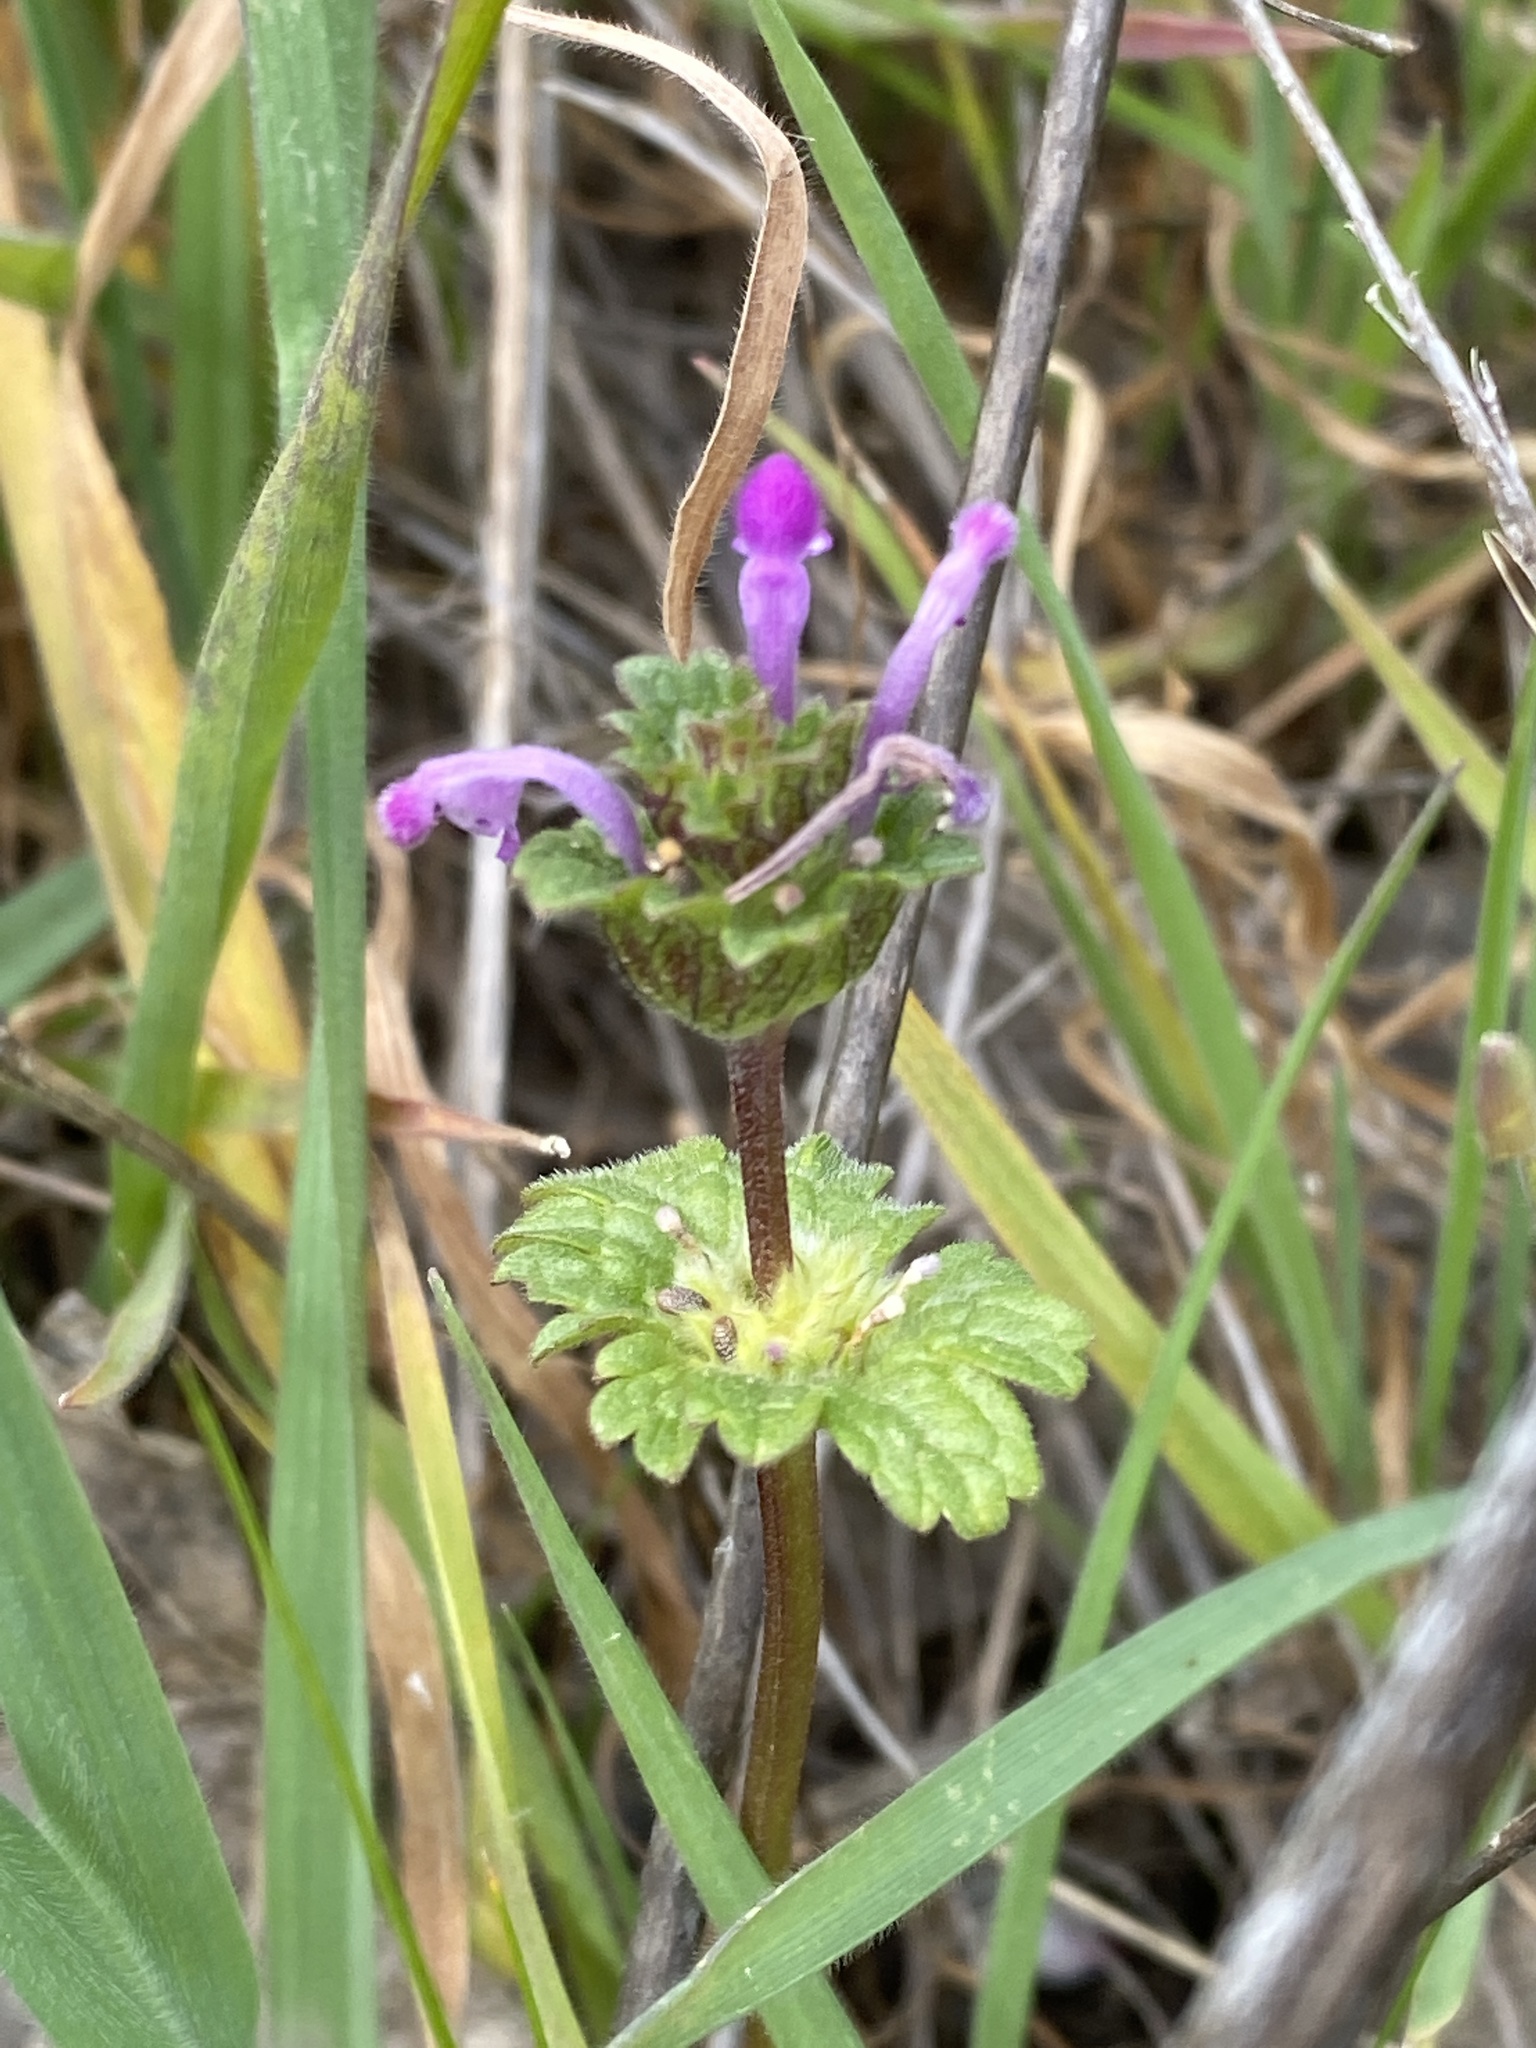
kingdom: Plantae
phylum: Tracheophyta
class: Magnoliopsida
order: Lamiales
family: Lamiaceae
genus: Lamium
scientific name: Lamium amplexicaule
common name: Henbit dead-nettle
